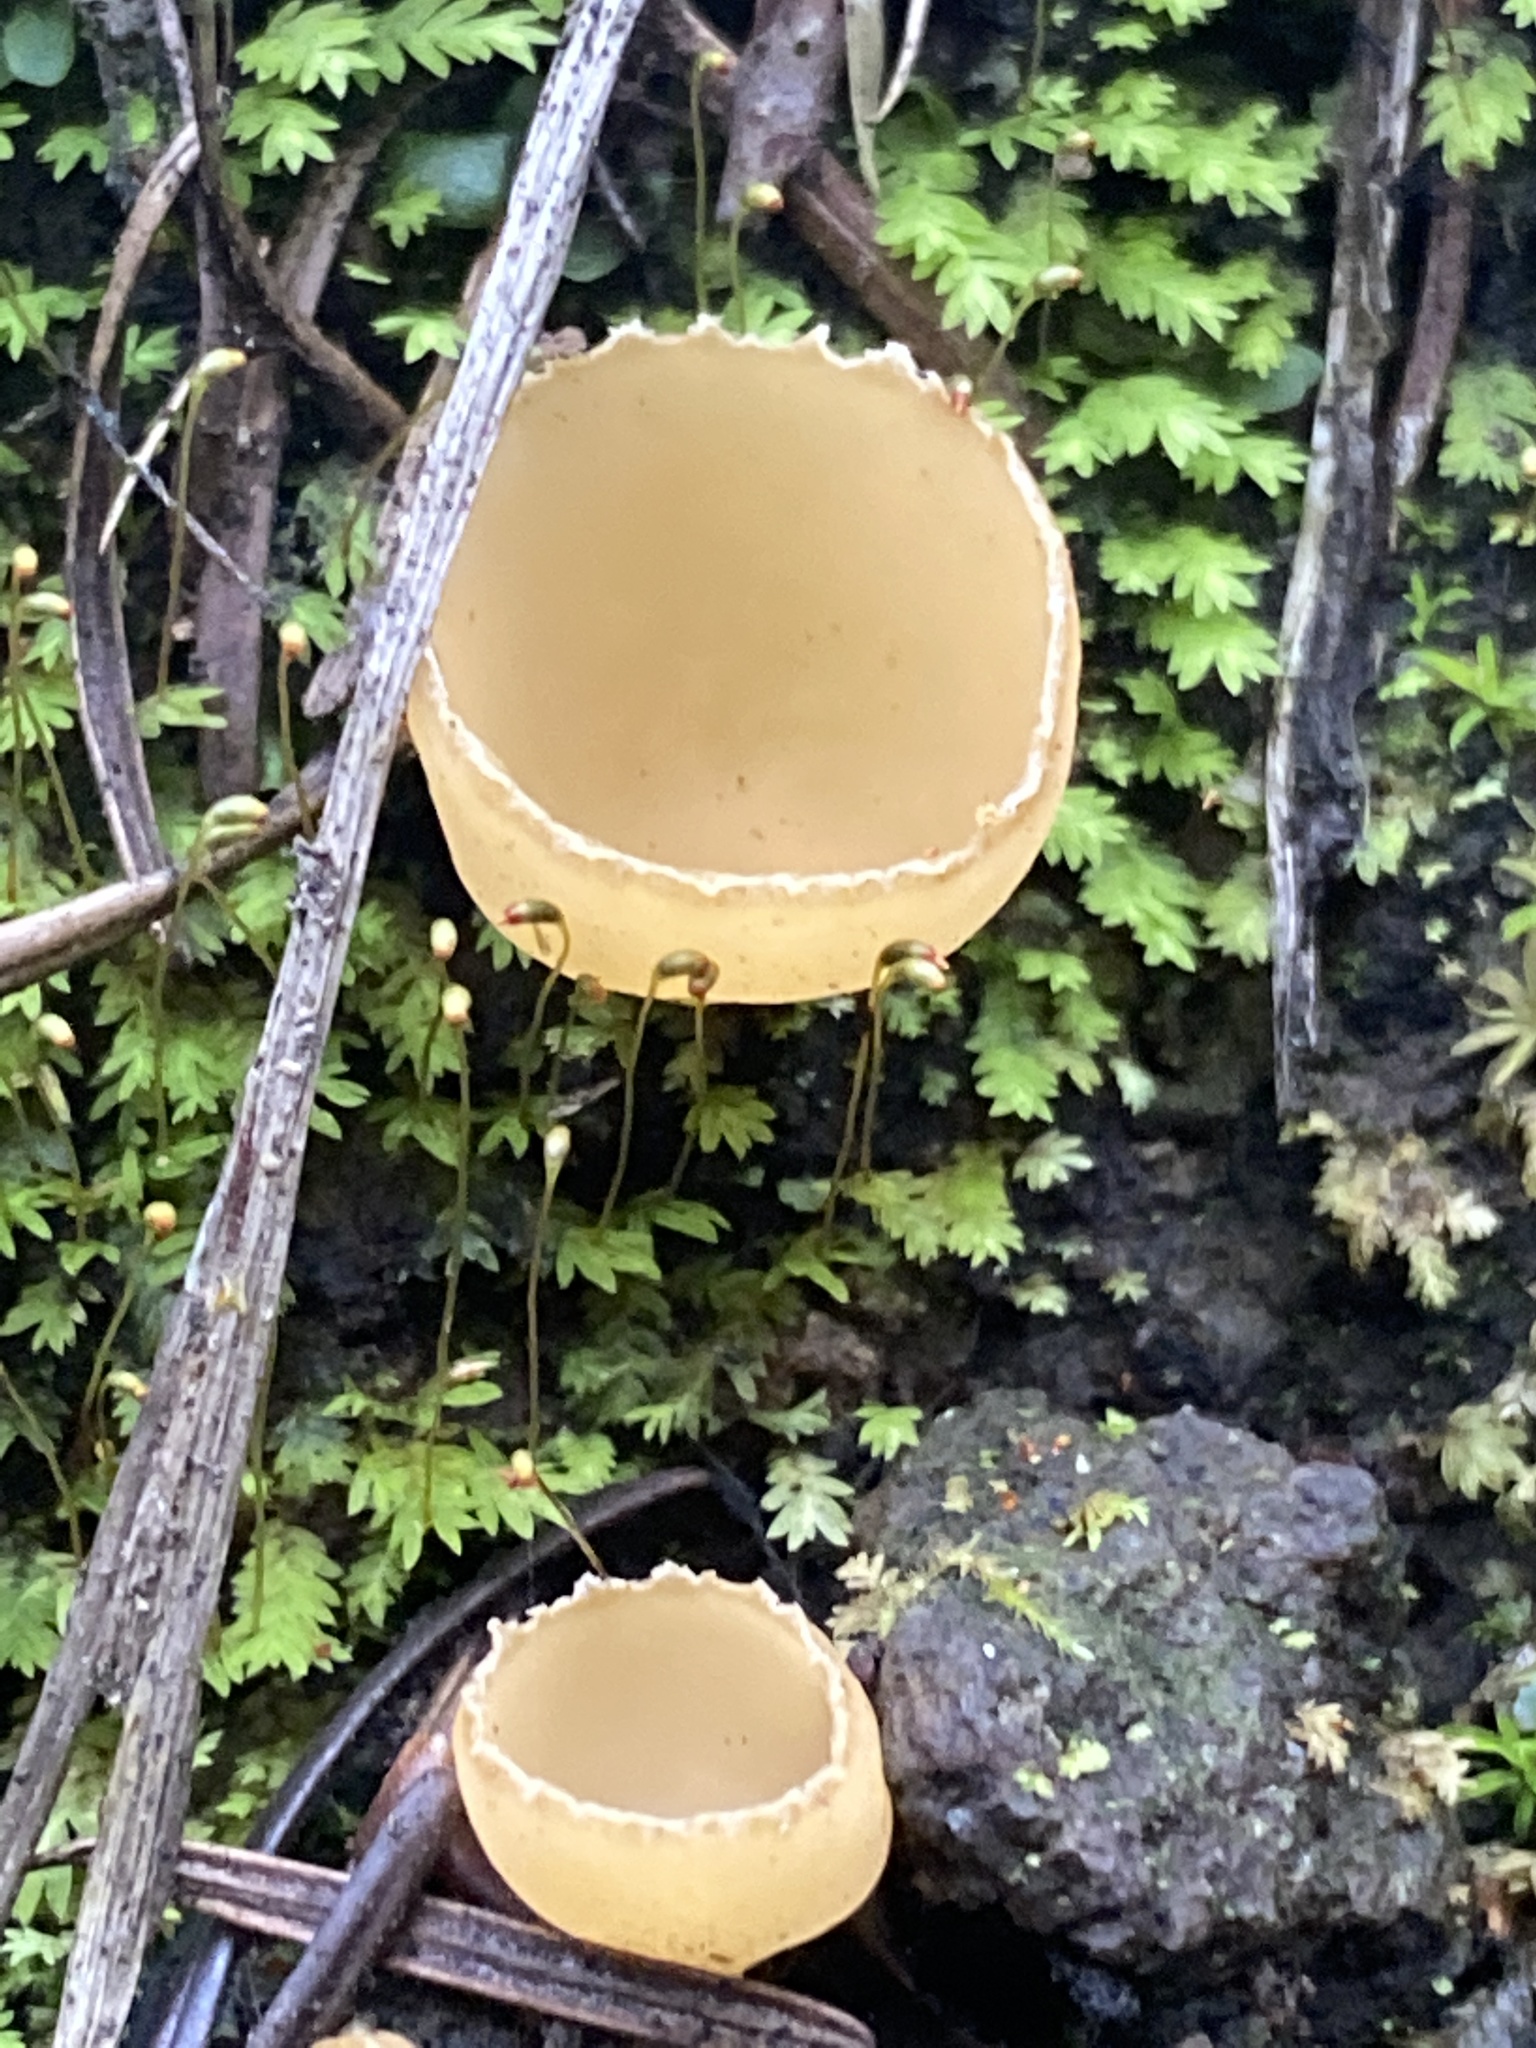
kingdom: Fungi
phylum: Ascomycota
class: Pezizomycetes
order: Pezizales
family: Pyronemataceae
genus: Geopyxis
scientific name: Geopyxis carbonaria
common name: Stalked bonfire cup
